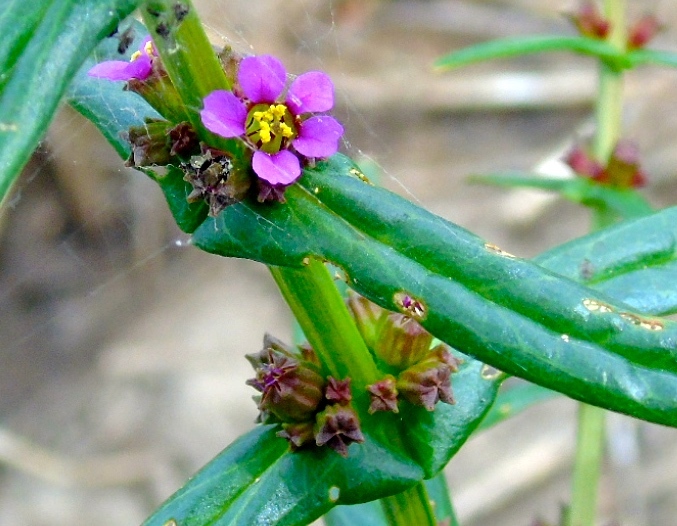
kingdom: Plantae
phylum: Tracheophyta
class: Magnoliopsida
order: Myrtales
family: Lythraceae
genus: Ammannia
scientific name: Ammannia coccinea
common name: Valley redstem
